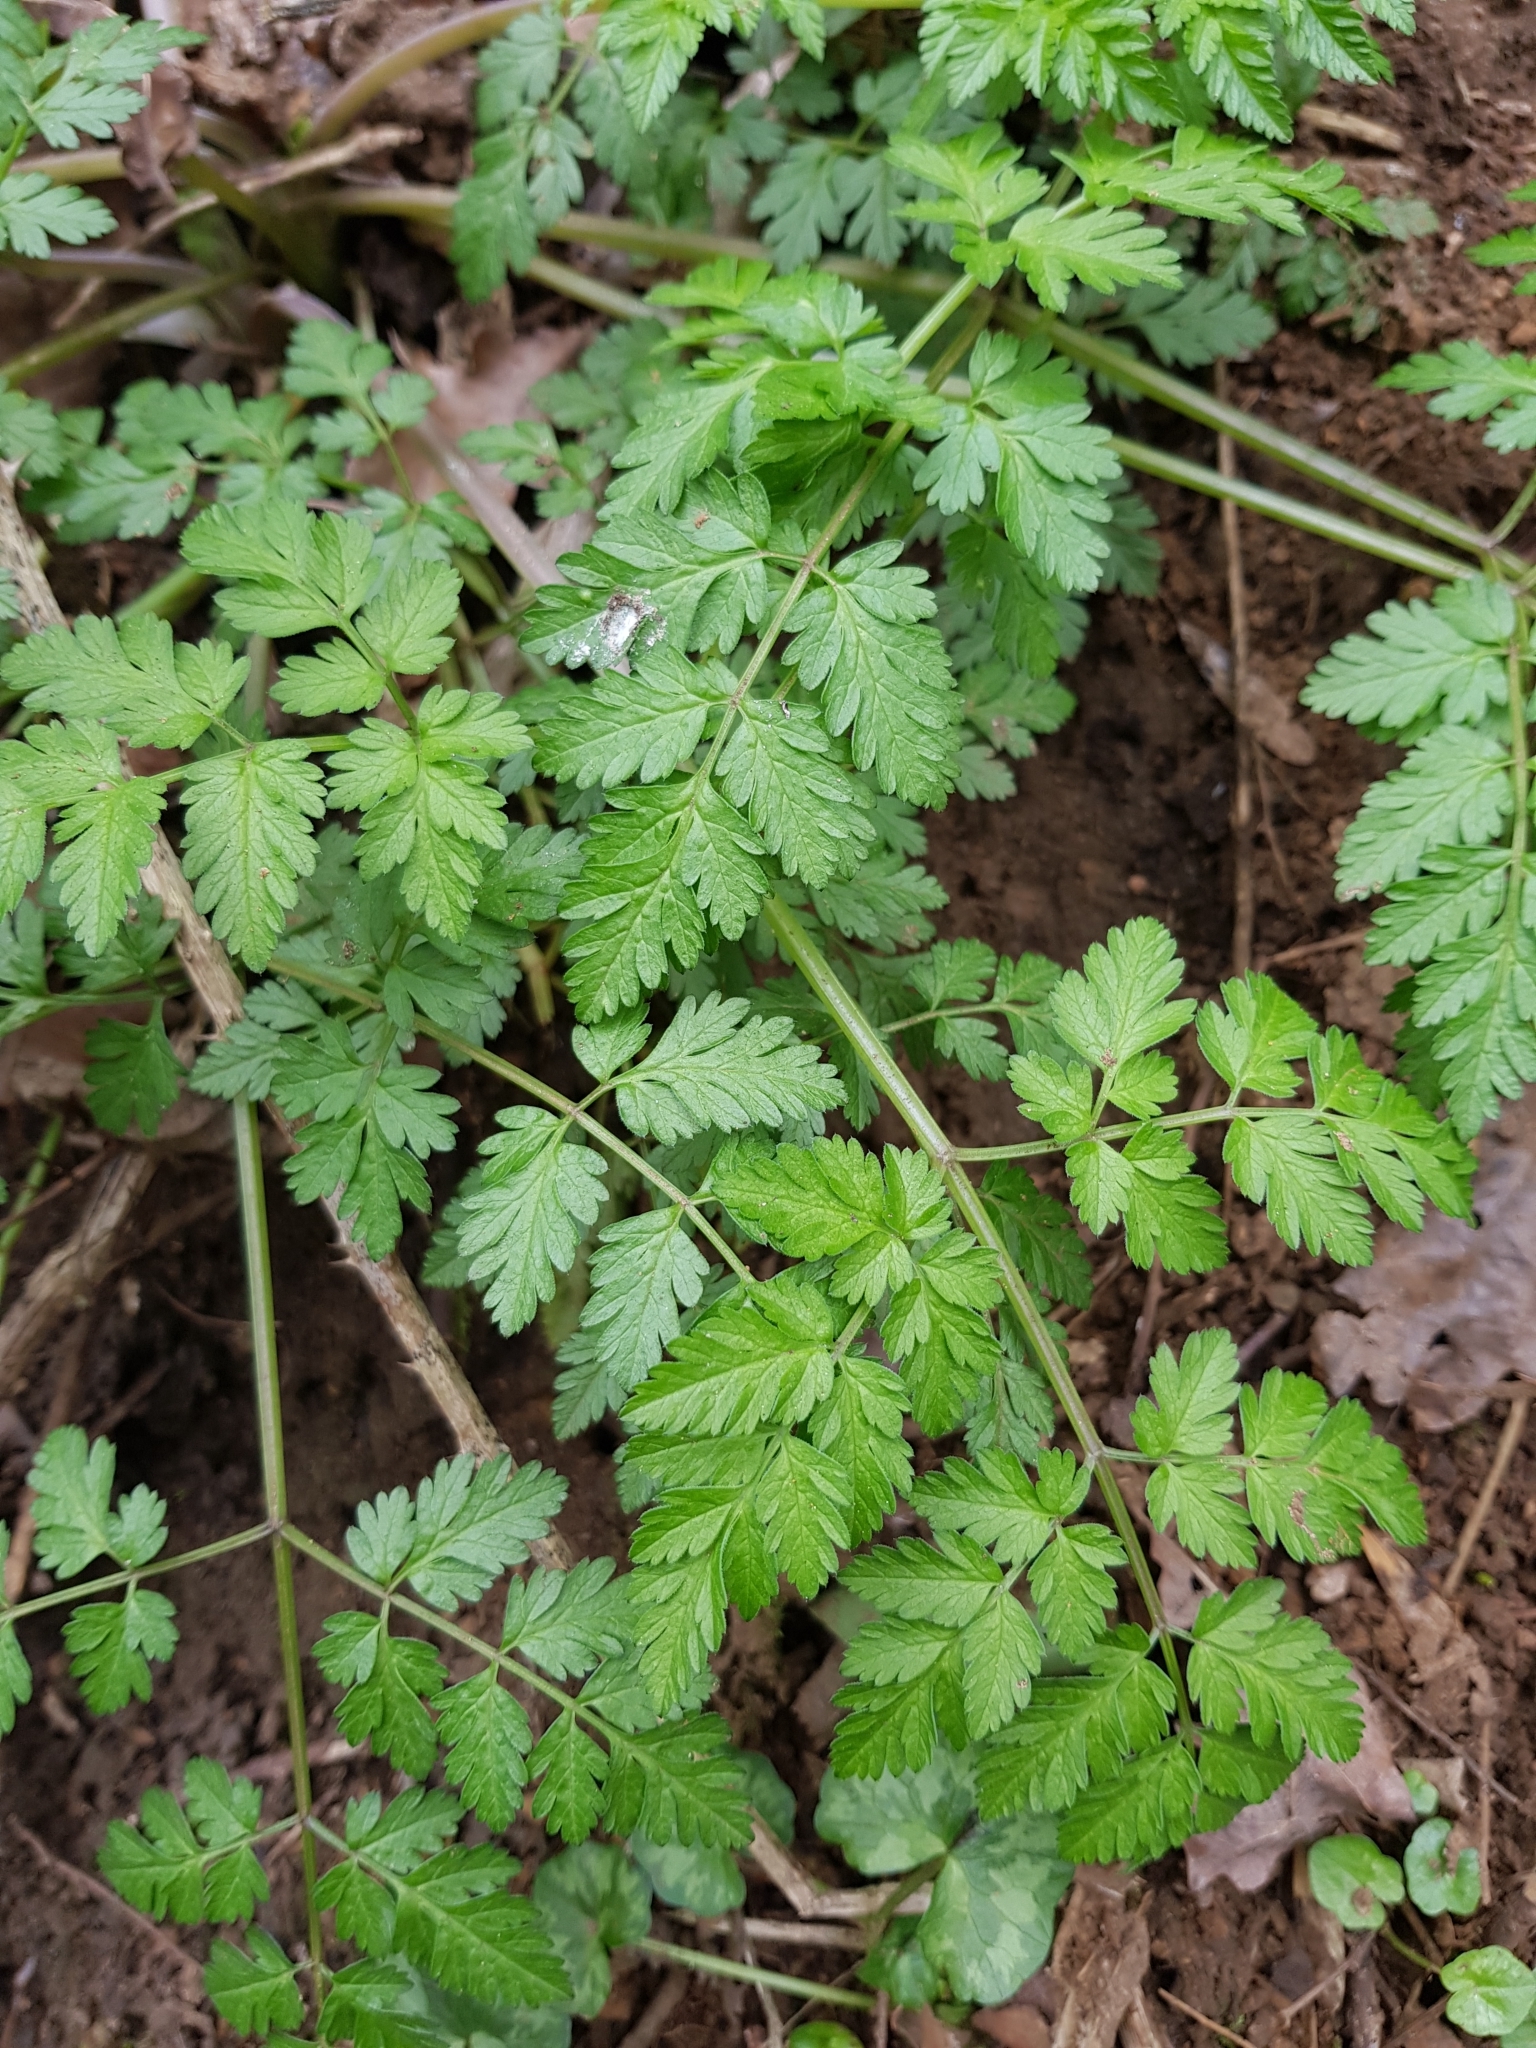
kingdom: Plantae
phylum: Tracheophyta
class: Magnoliopsida
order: Apiales
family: Apiaceae
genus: Anthriscus
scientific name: Anthriscus sylvestris
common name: Cow parsley
